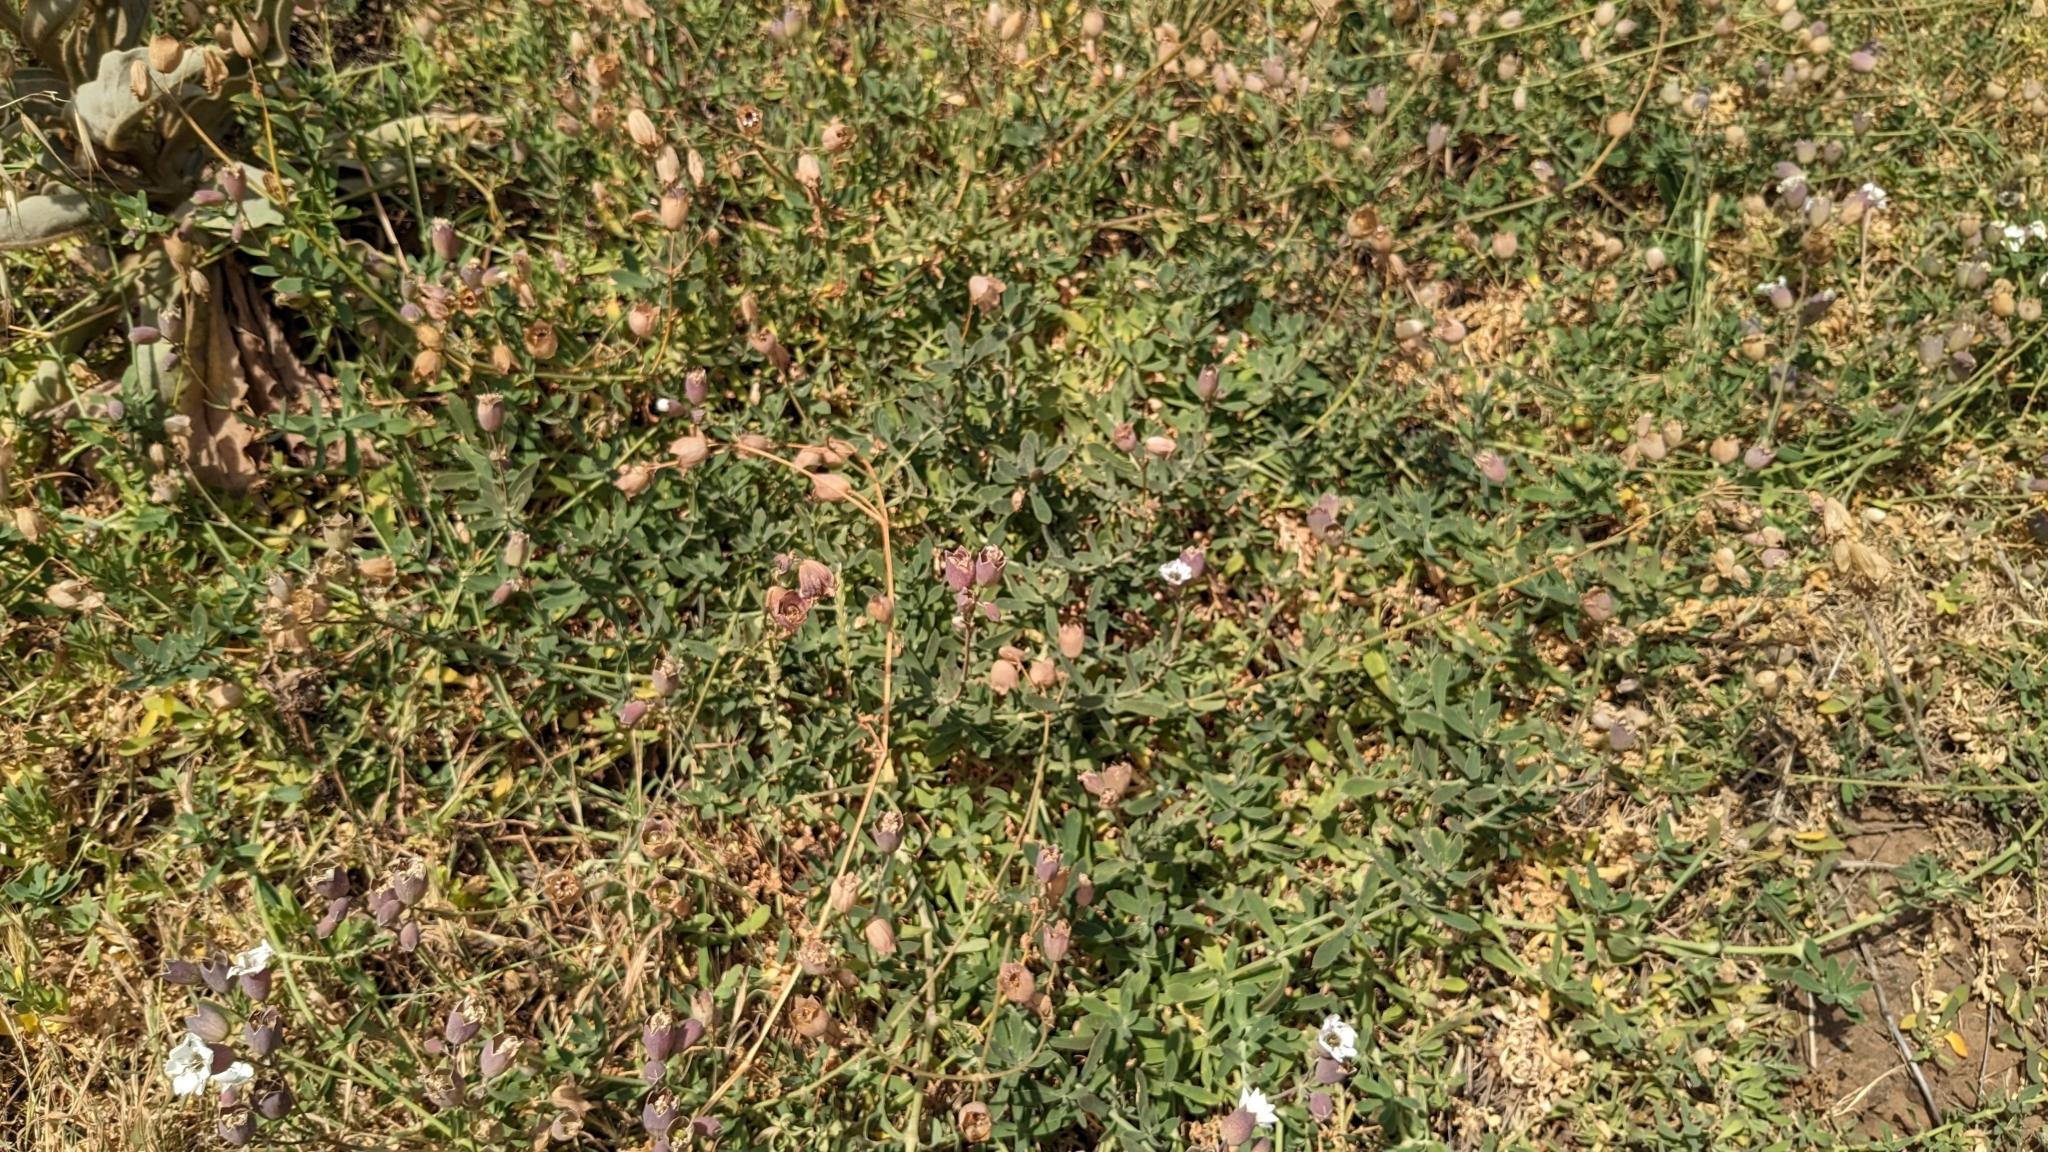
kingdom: Plantae
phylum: Tracheophyta
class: Magnoliopsida
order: Caryophyllales
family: Caryophyllaceae
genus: Silene
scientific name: Silene uniflora
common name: Sea campion
